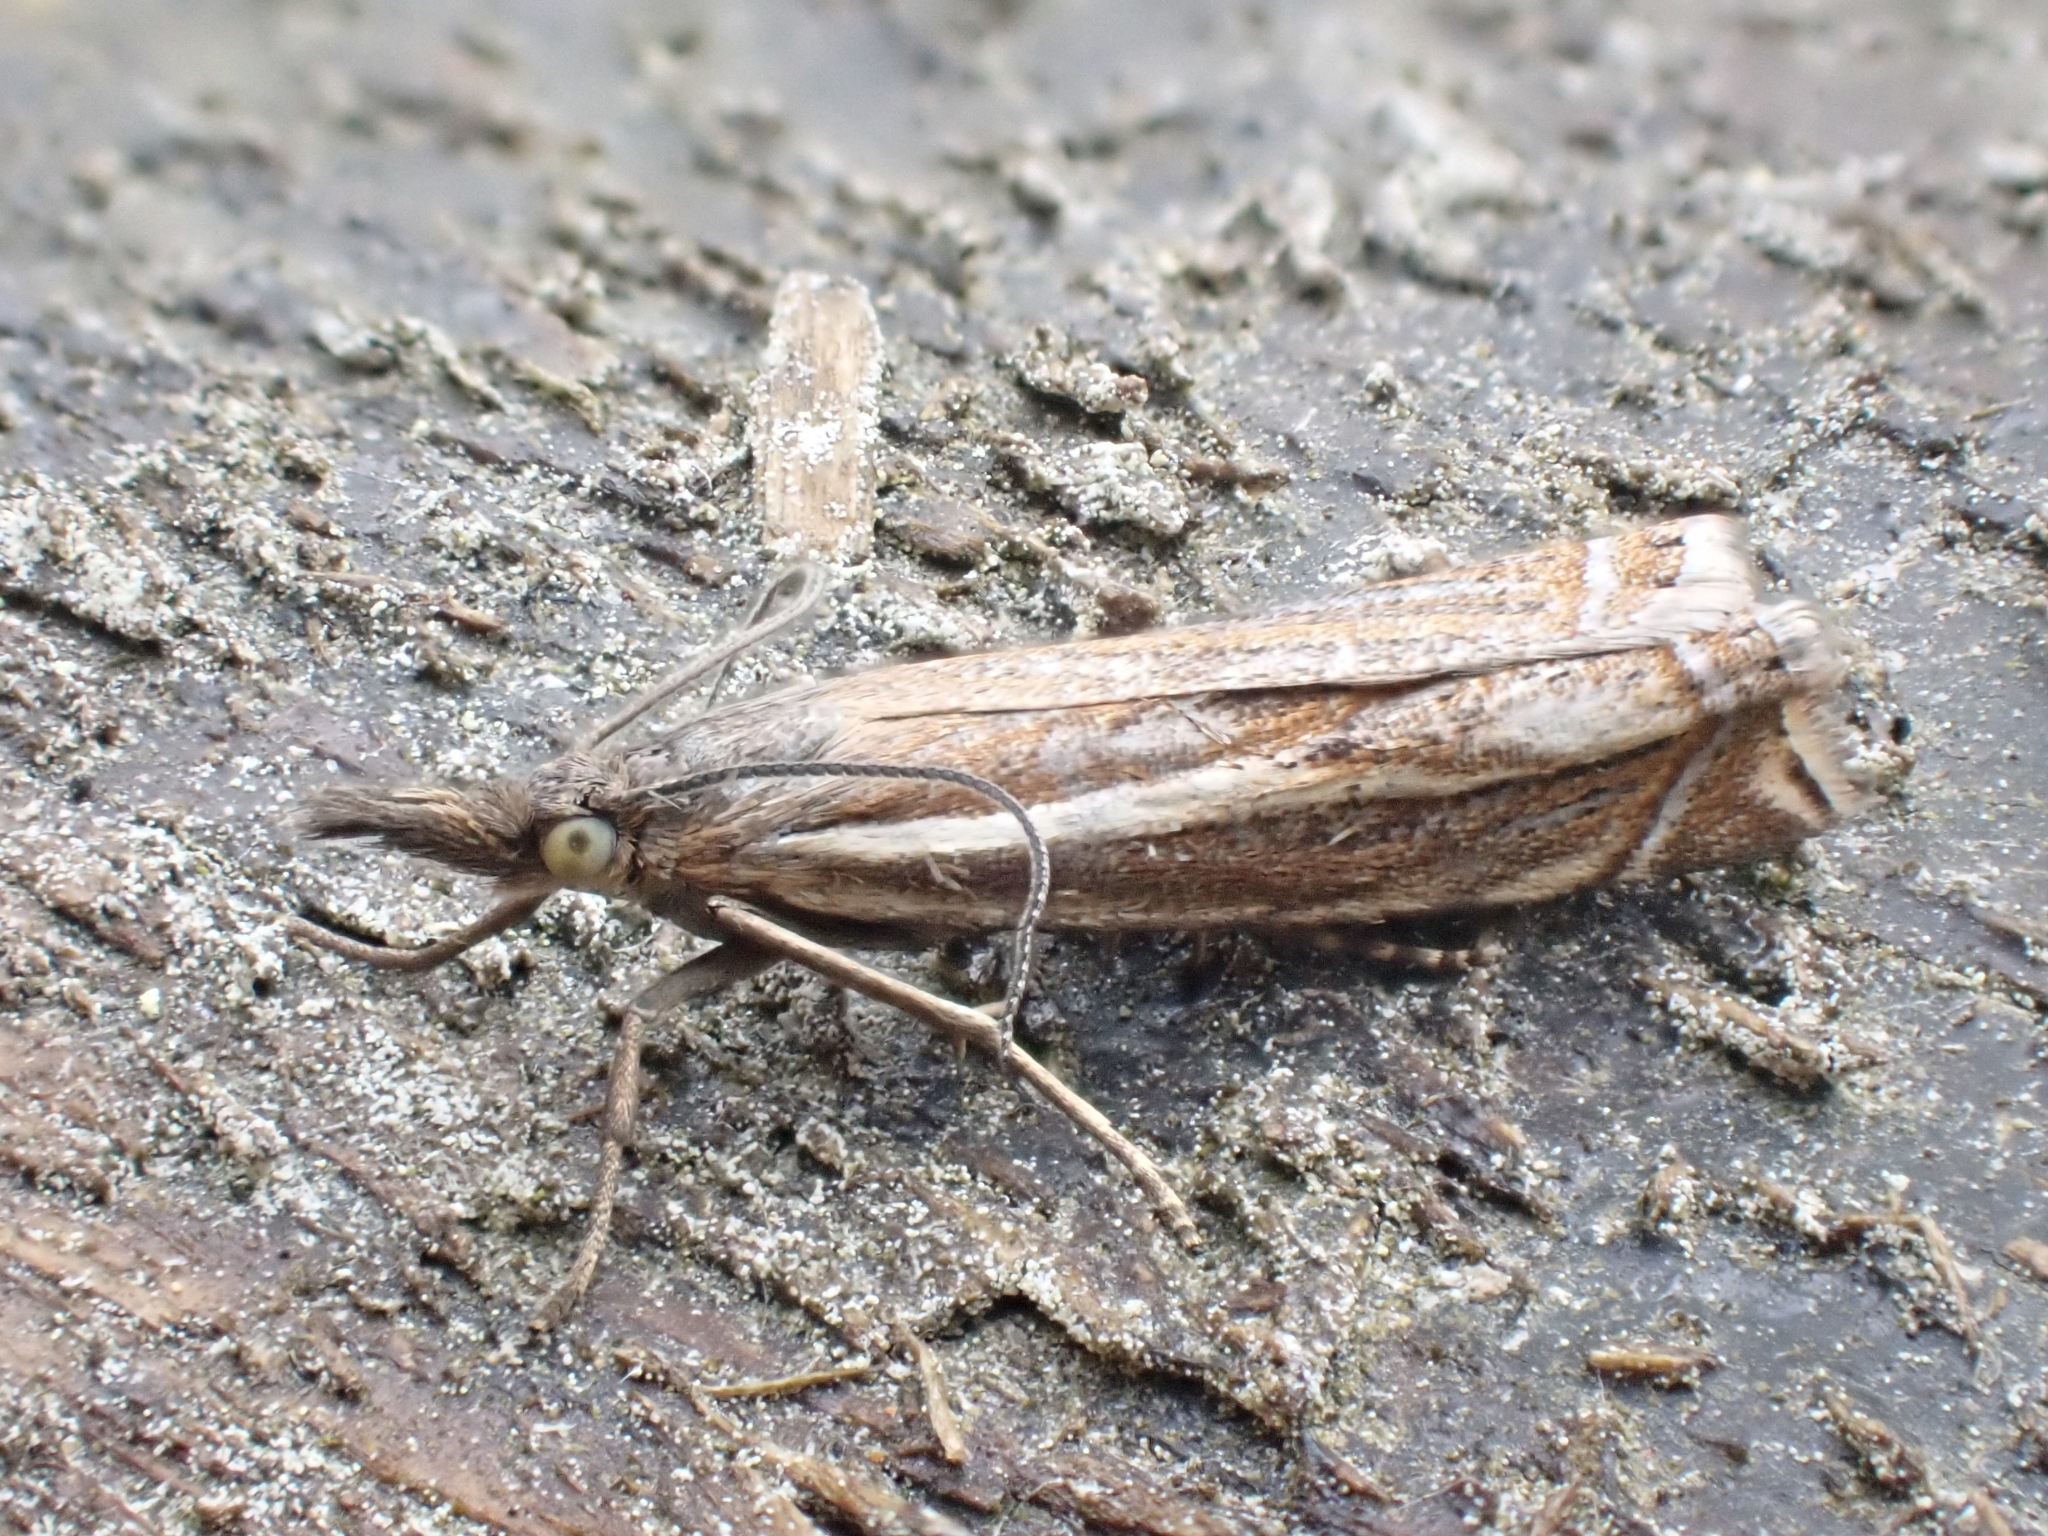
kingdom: Animalia
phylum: Arthropoda
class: Insecta
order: Lepidoptera
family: Crambidae
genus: Crambus
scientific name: Crambus nemorella
